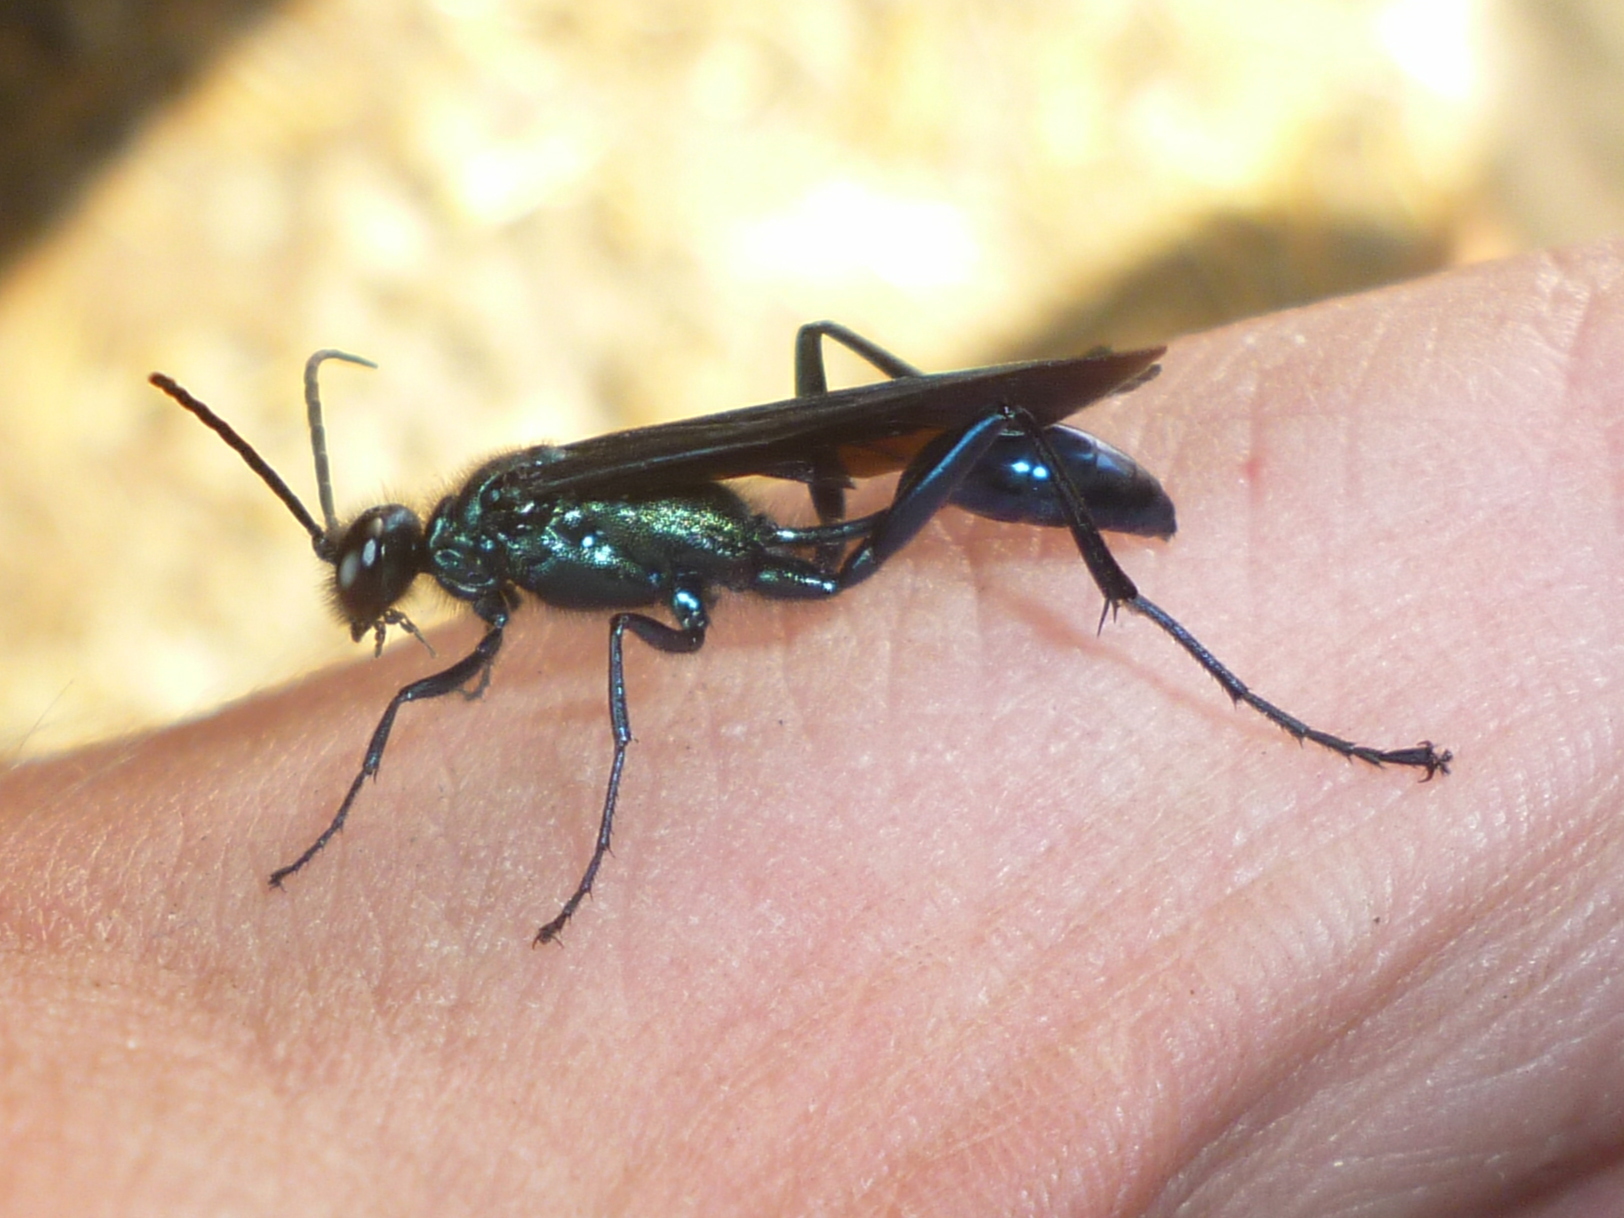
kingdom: Animalia
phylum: Arthropoda
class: Insecta
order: Hymenoptera
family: Sphecidae
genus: Chalybion
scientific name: Chalybion californicum
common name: Mud dauber
